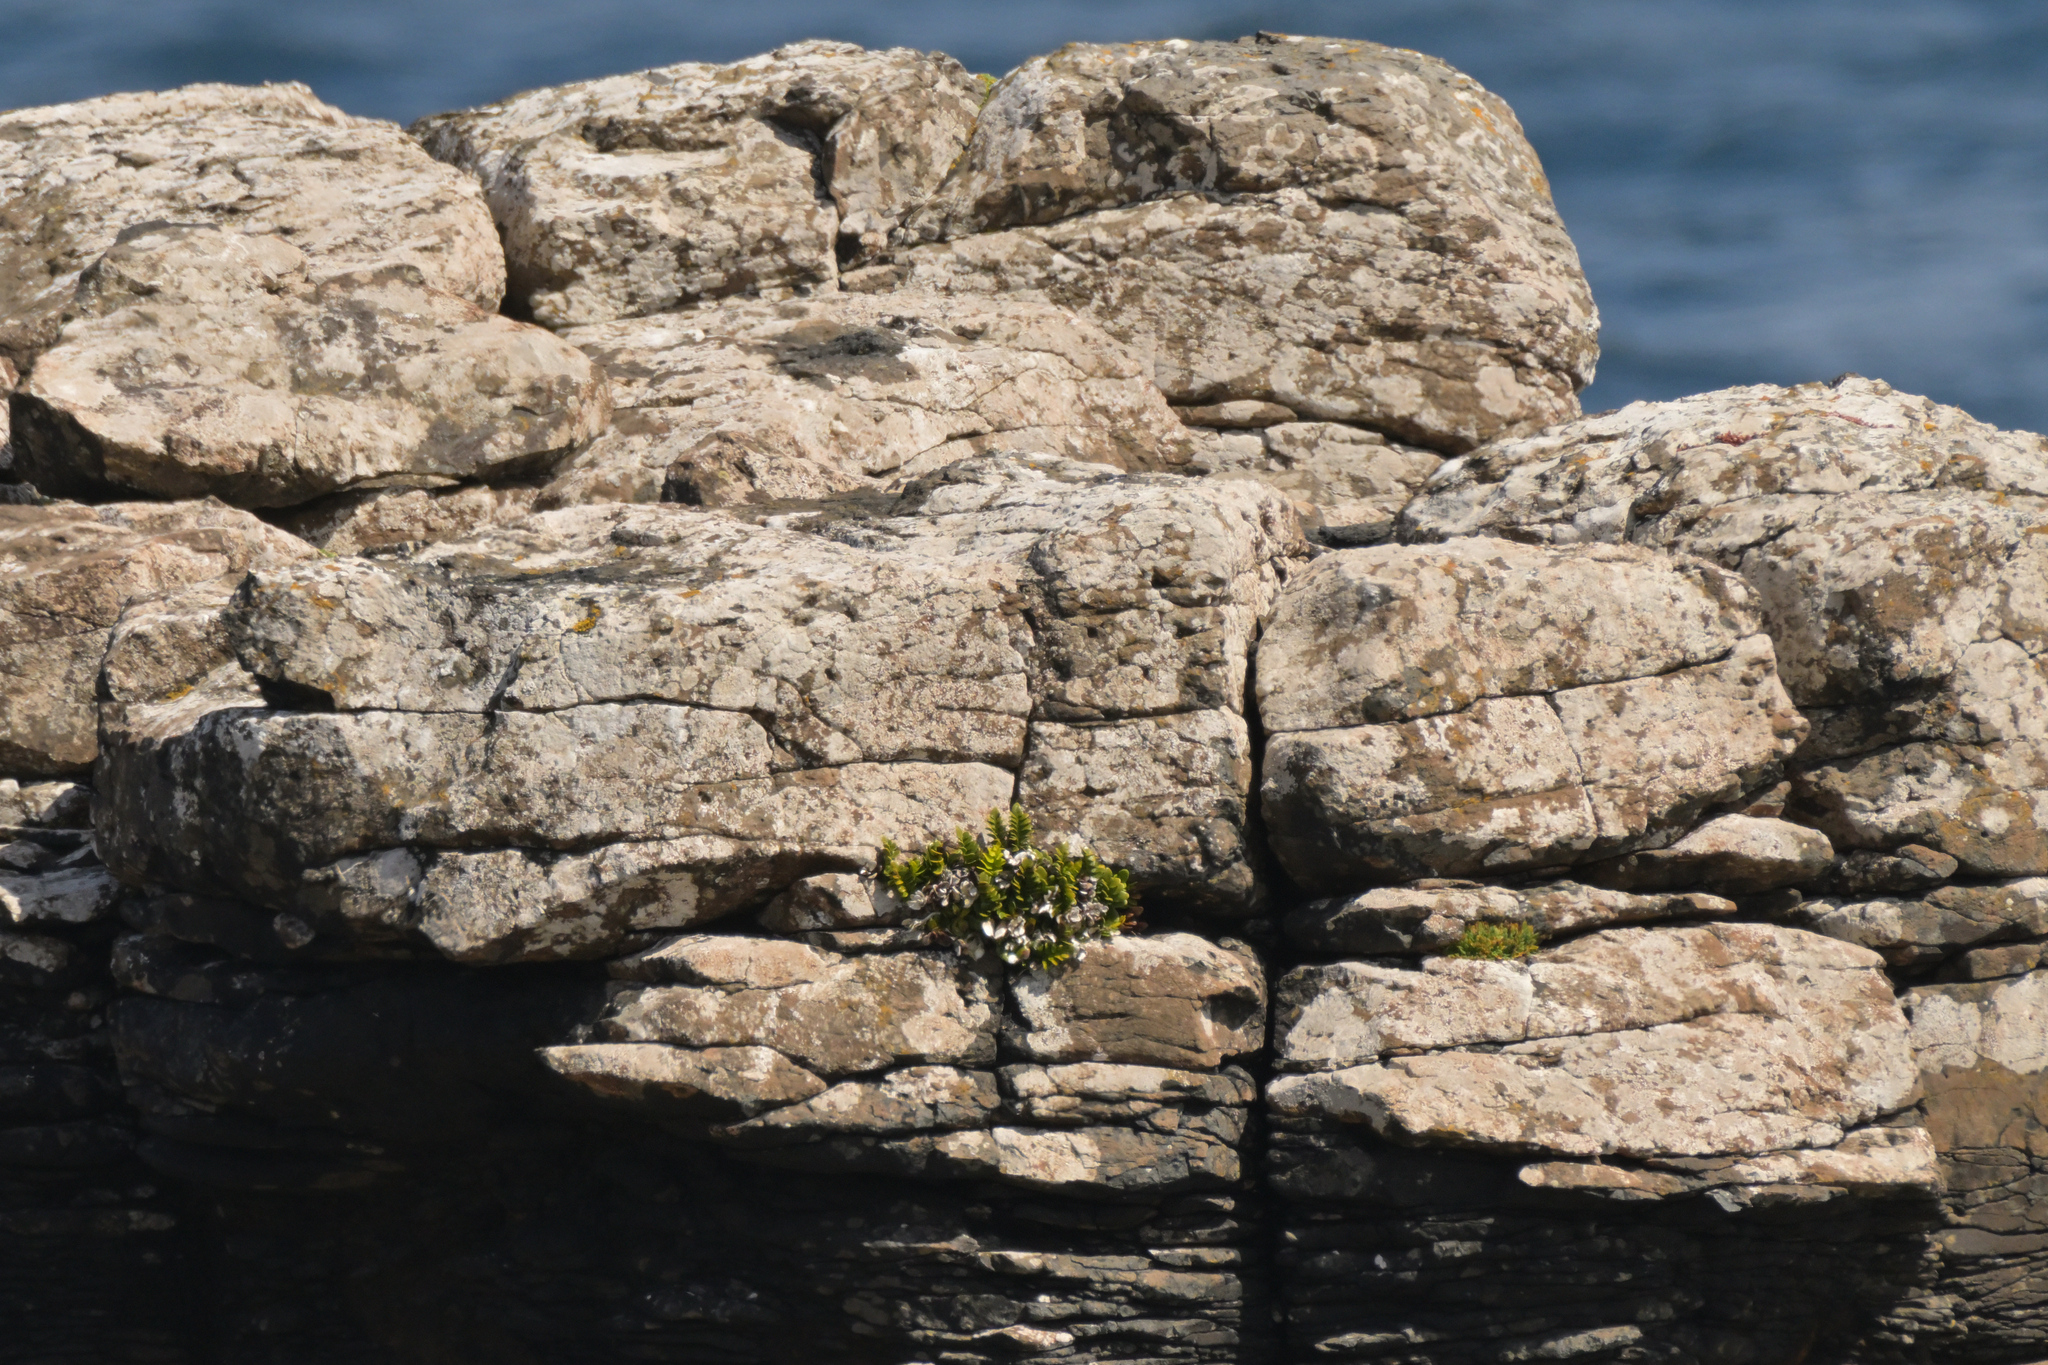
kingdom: Plantae
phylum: Tracheophyta
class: Polypodiopsida
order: Polypodiales
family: Aspleniaceae
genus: Asplenium
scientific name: Asplenium obtusatum
